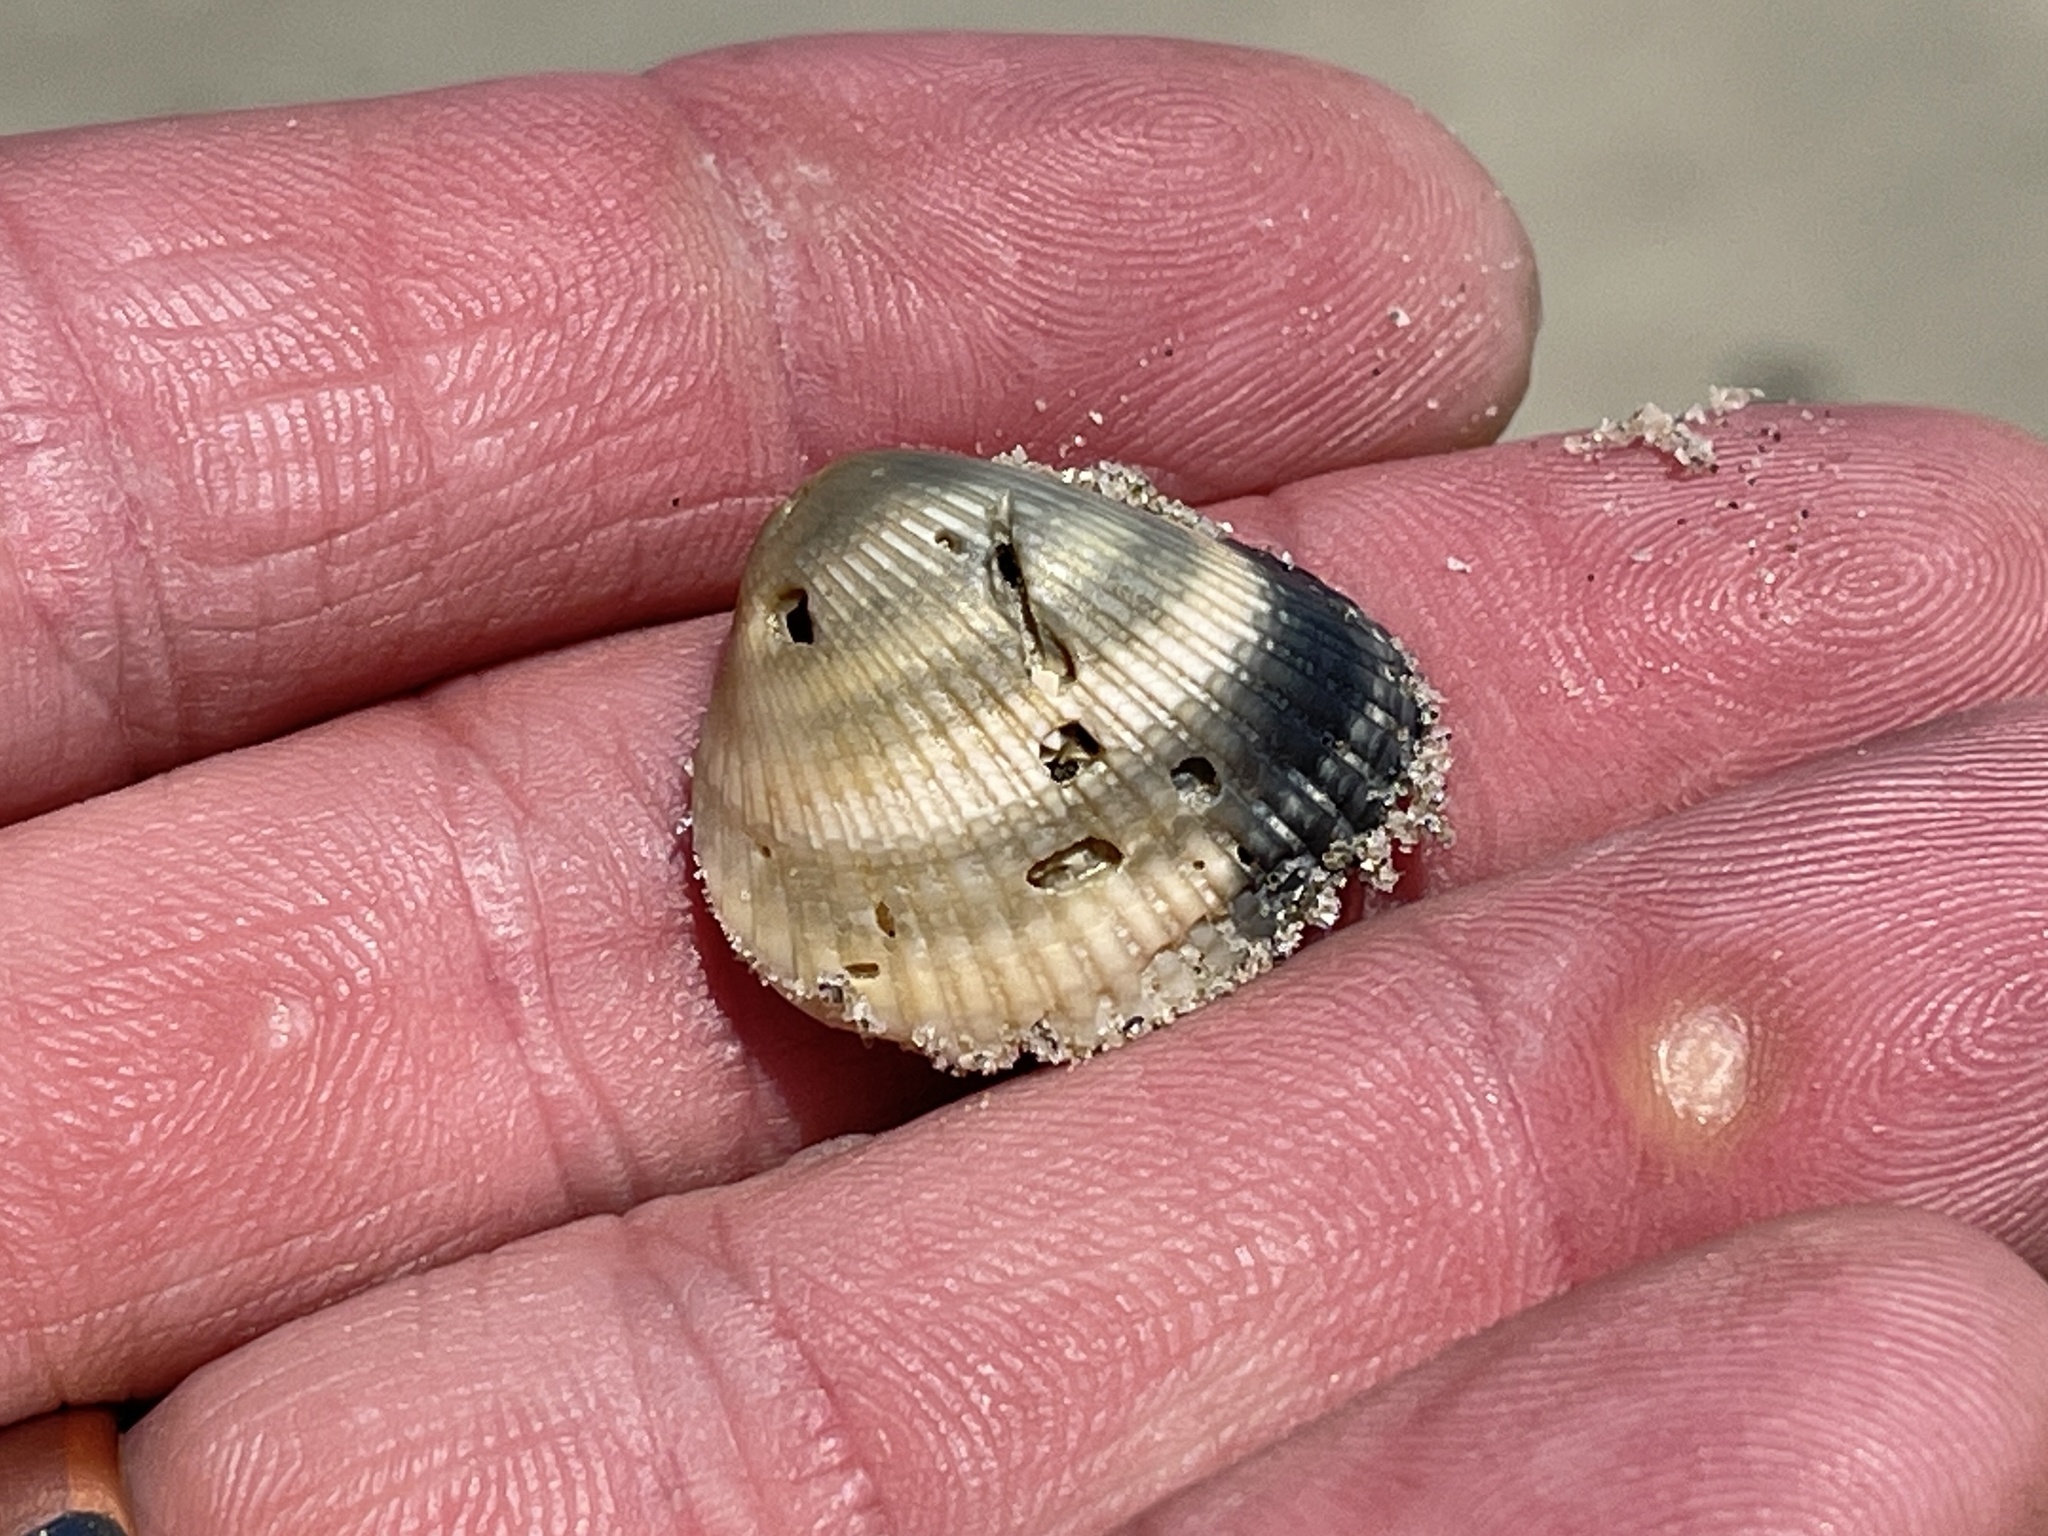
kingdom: Animalia
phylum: Mollusca
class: Bivalvia
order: Arcida
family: Noetiidae
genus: Noetia
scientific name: Noetia ponderosa
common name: Ponderous ark
